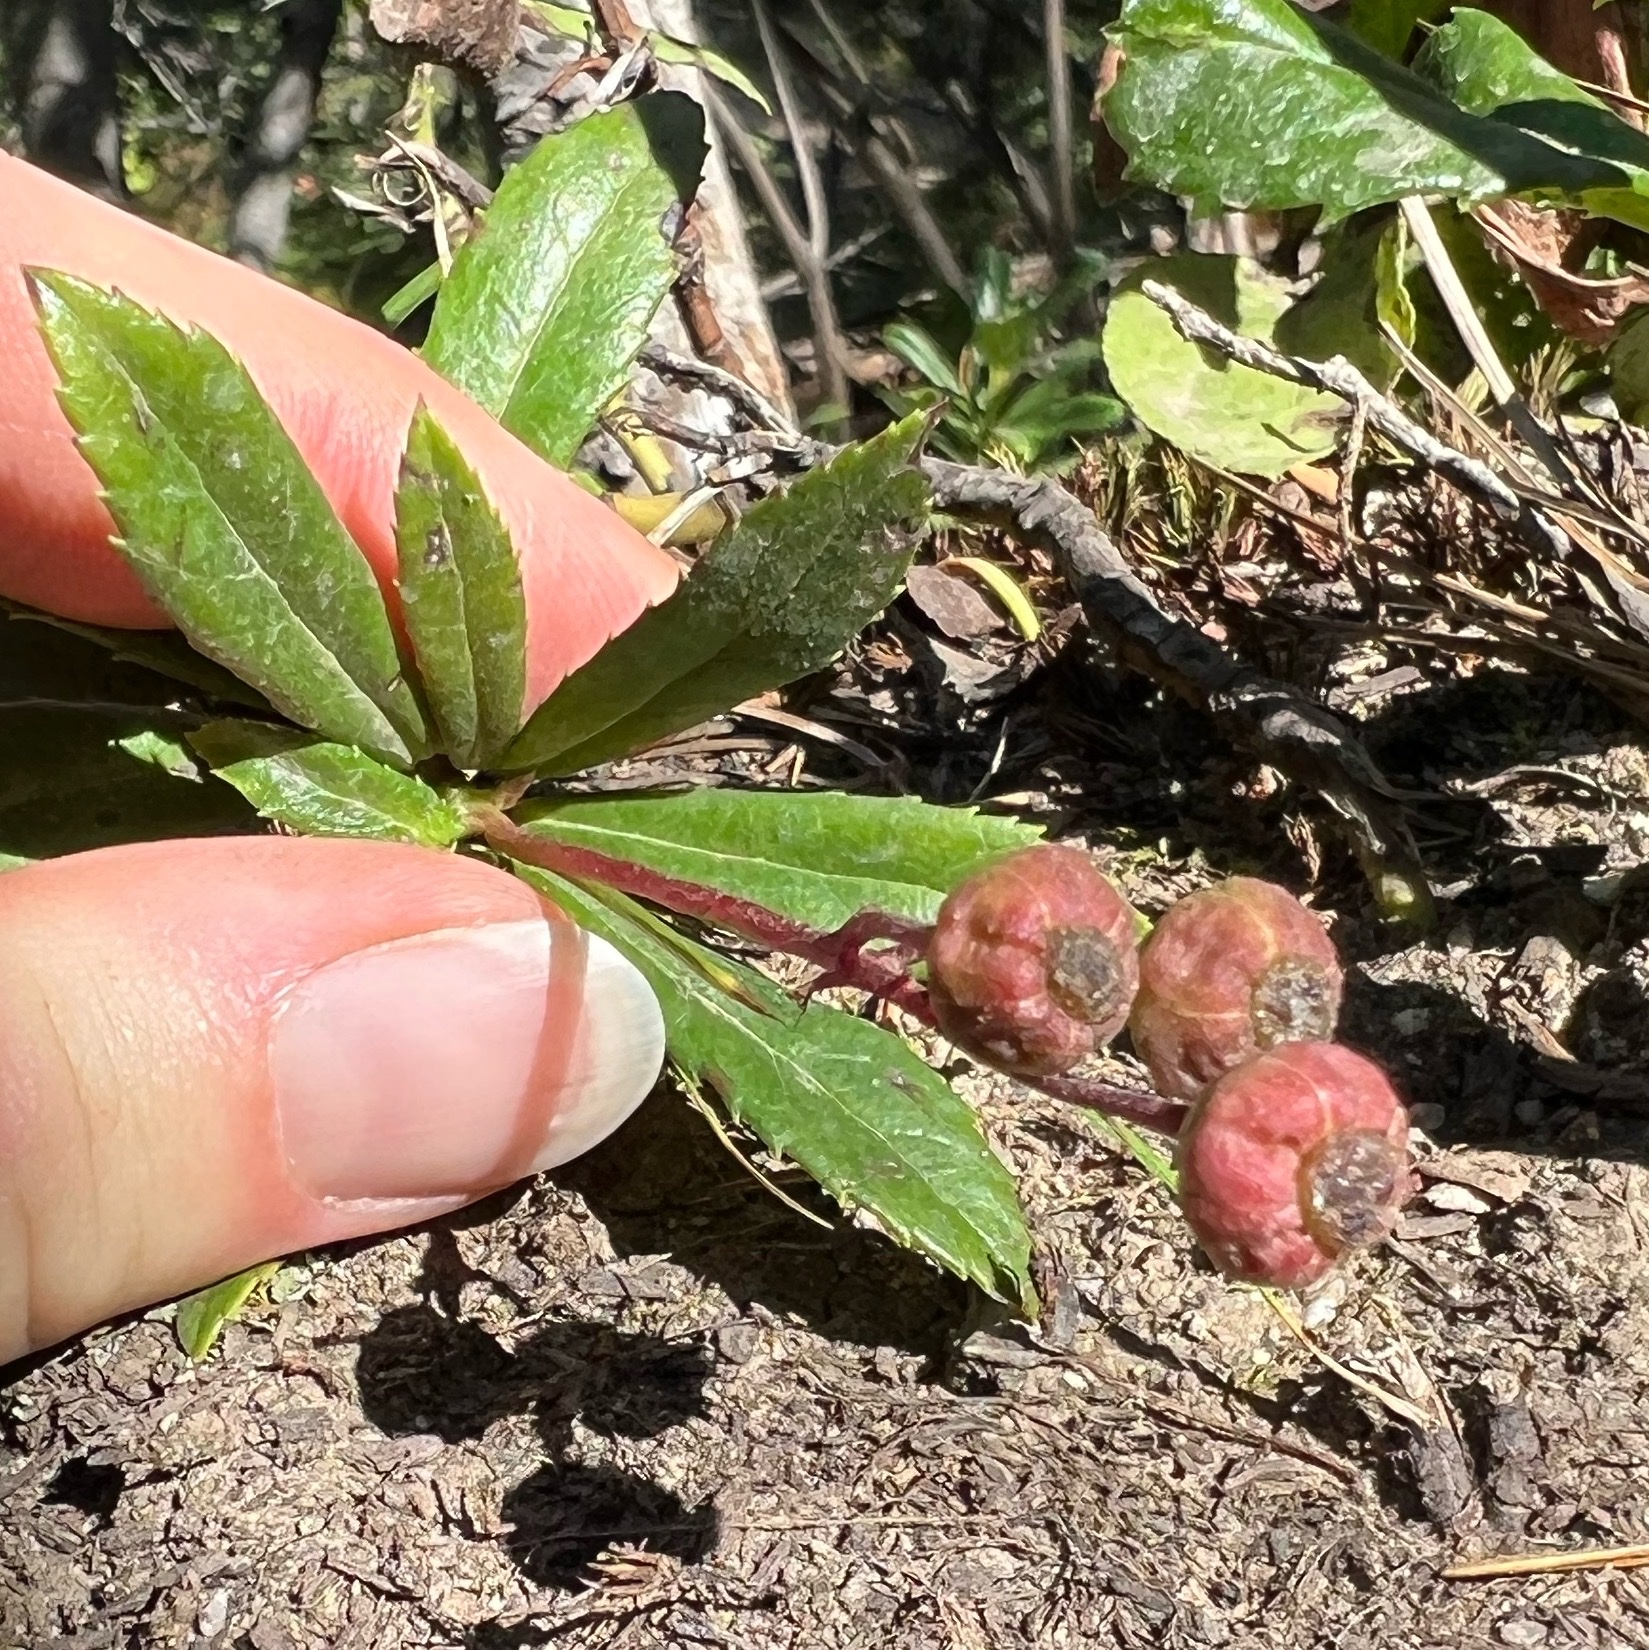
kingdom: Plantae
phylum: Tracheophyta
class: Magnoliopsida
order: Ericales
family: Ericaceae
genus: Chimaphila
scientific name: Chimaphila umbellata
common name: Pipsissewa
